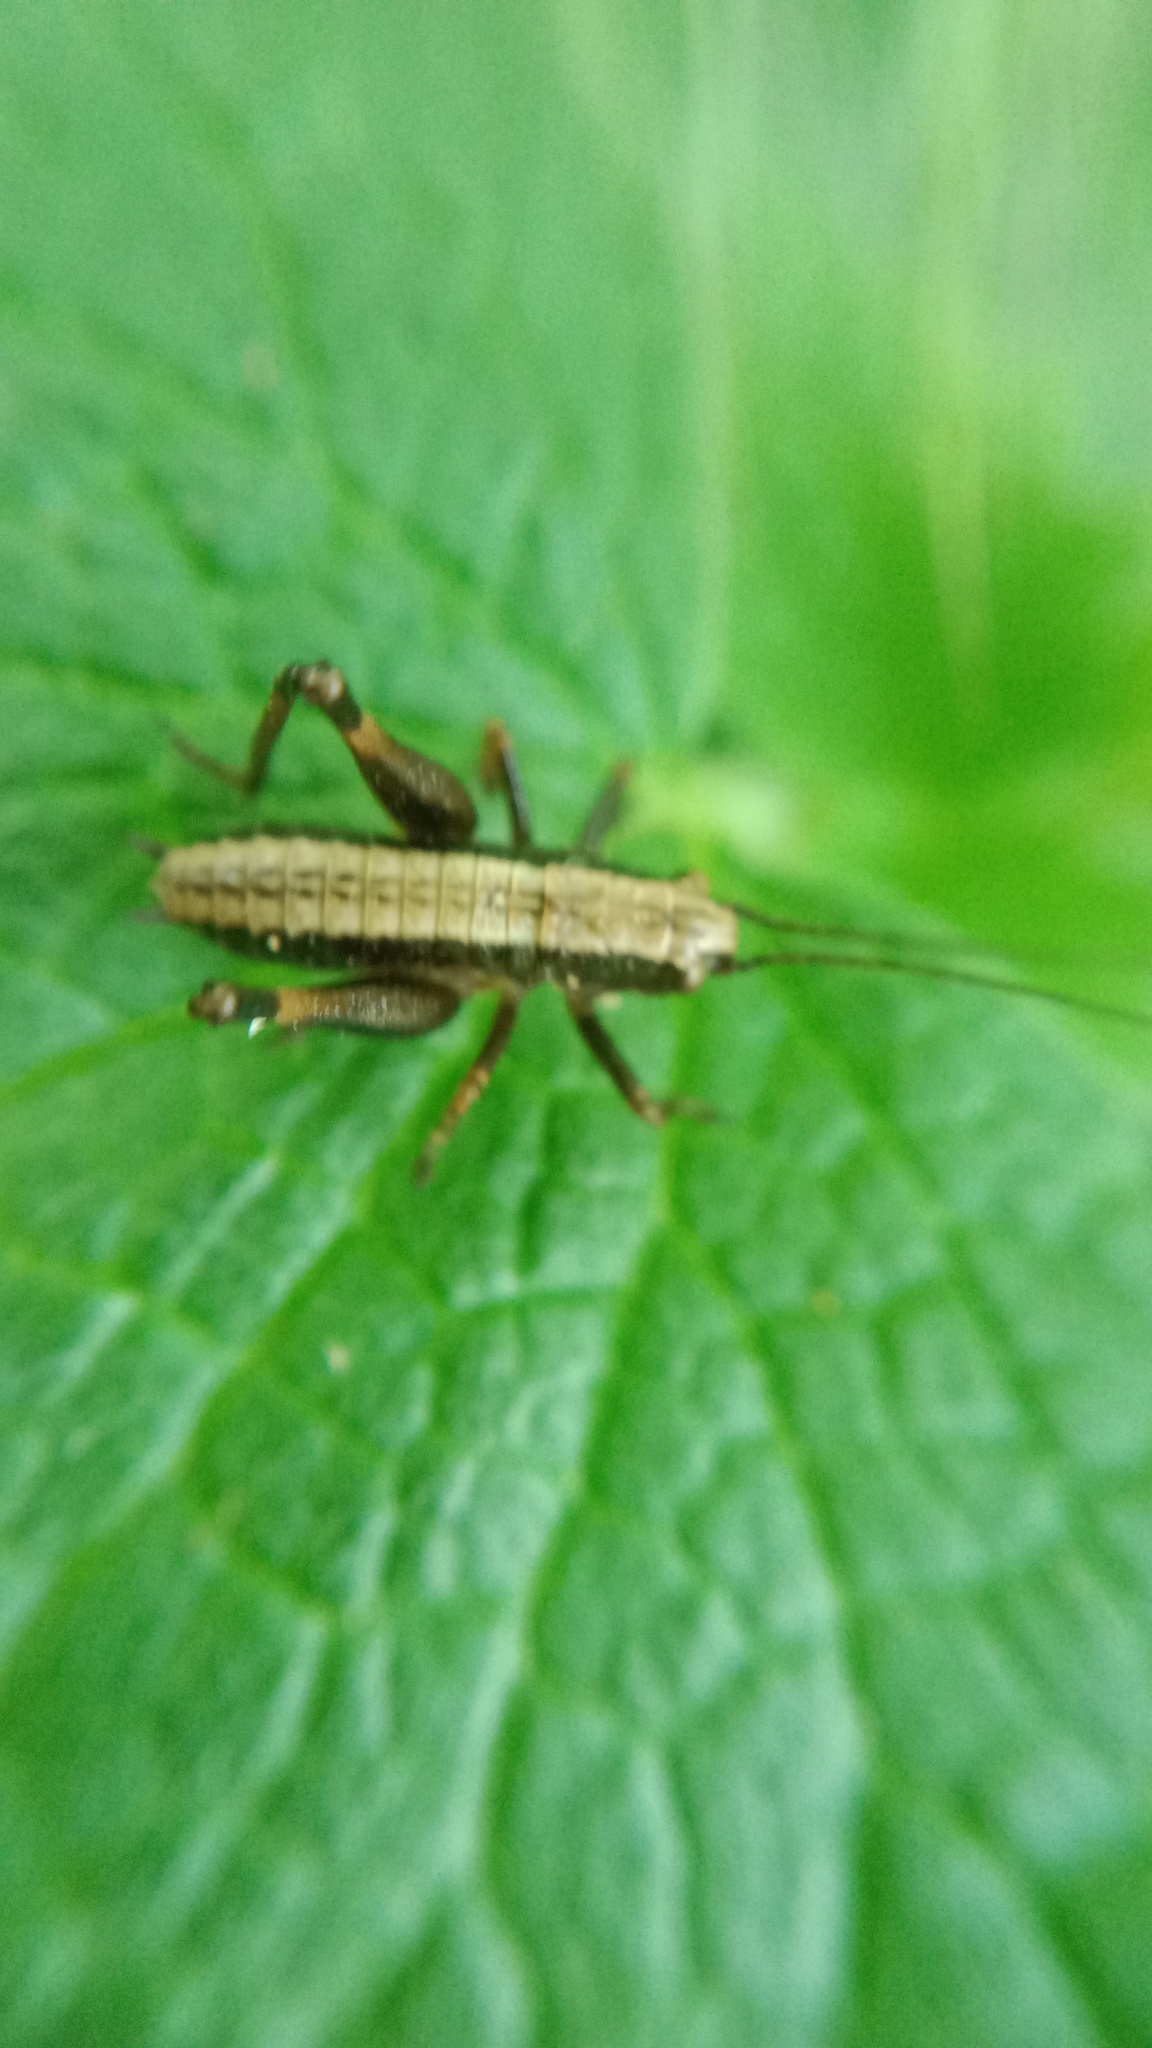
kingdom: Animalia
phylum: Arthropoda
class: Insecta
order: Orthoptera
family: Tettigoniidae
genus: Pholidoptera
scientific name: Pholidoptera griseoaptera
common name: Dark bush-cricket
